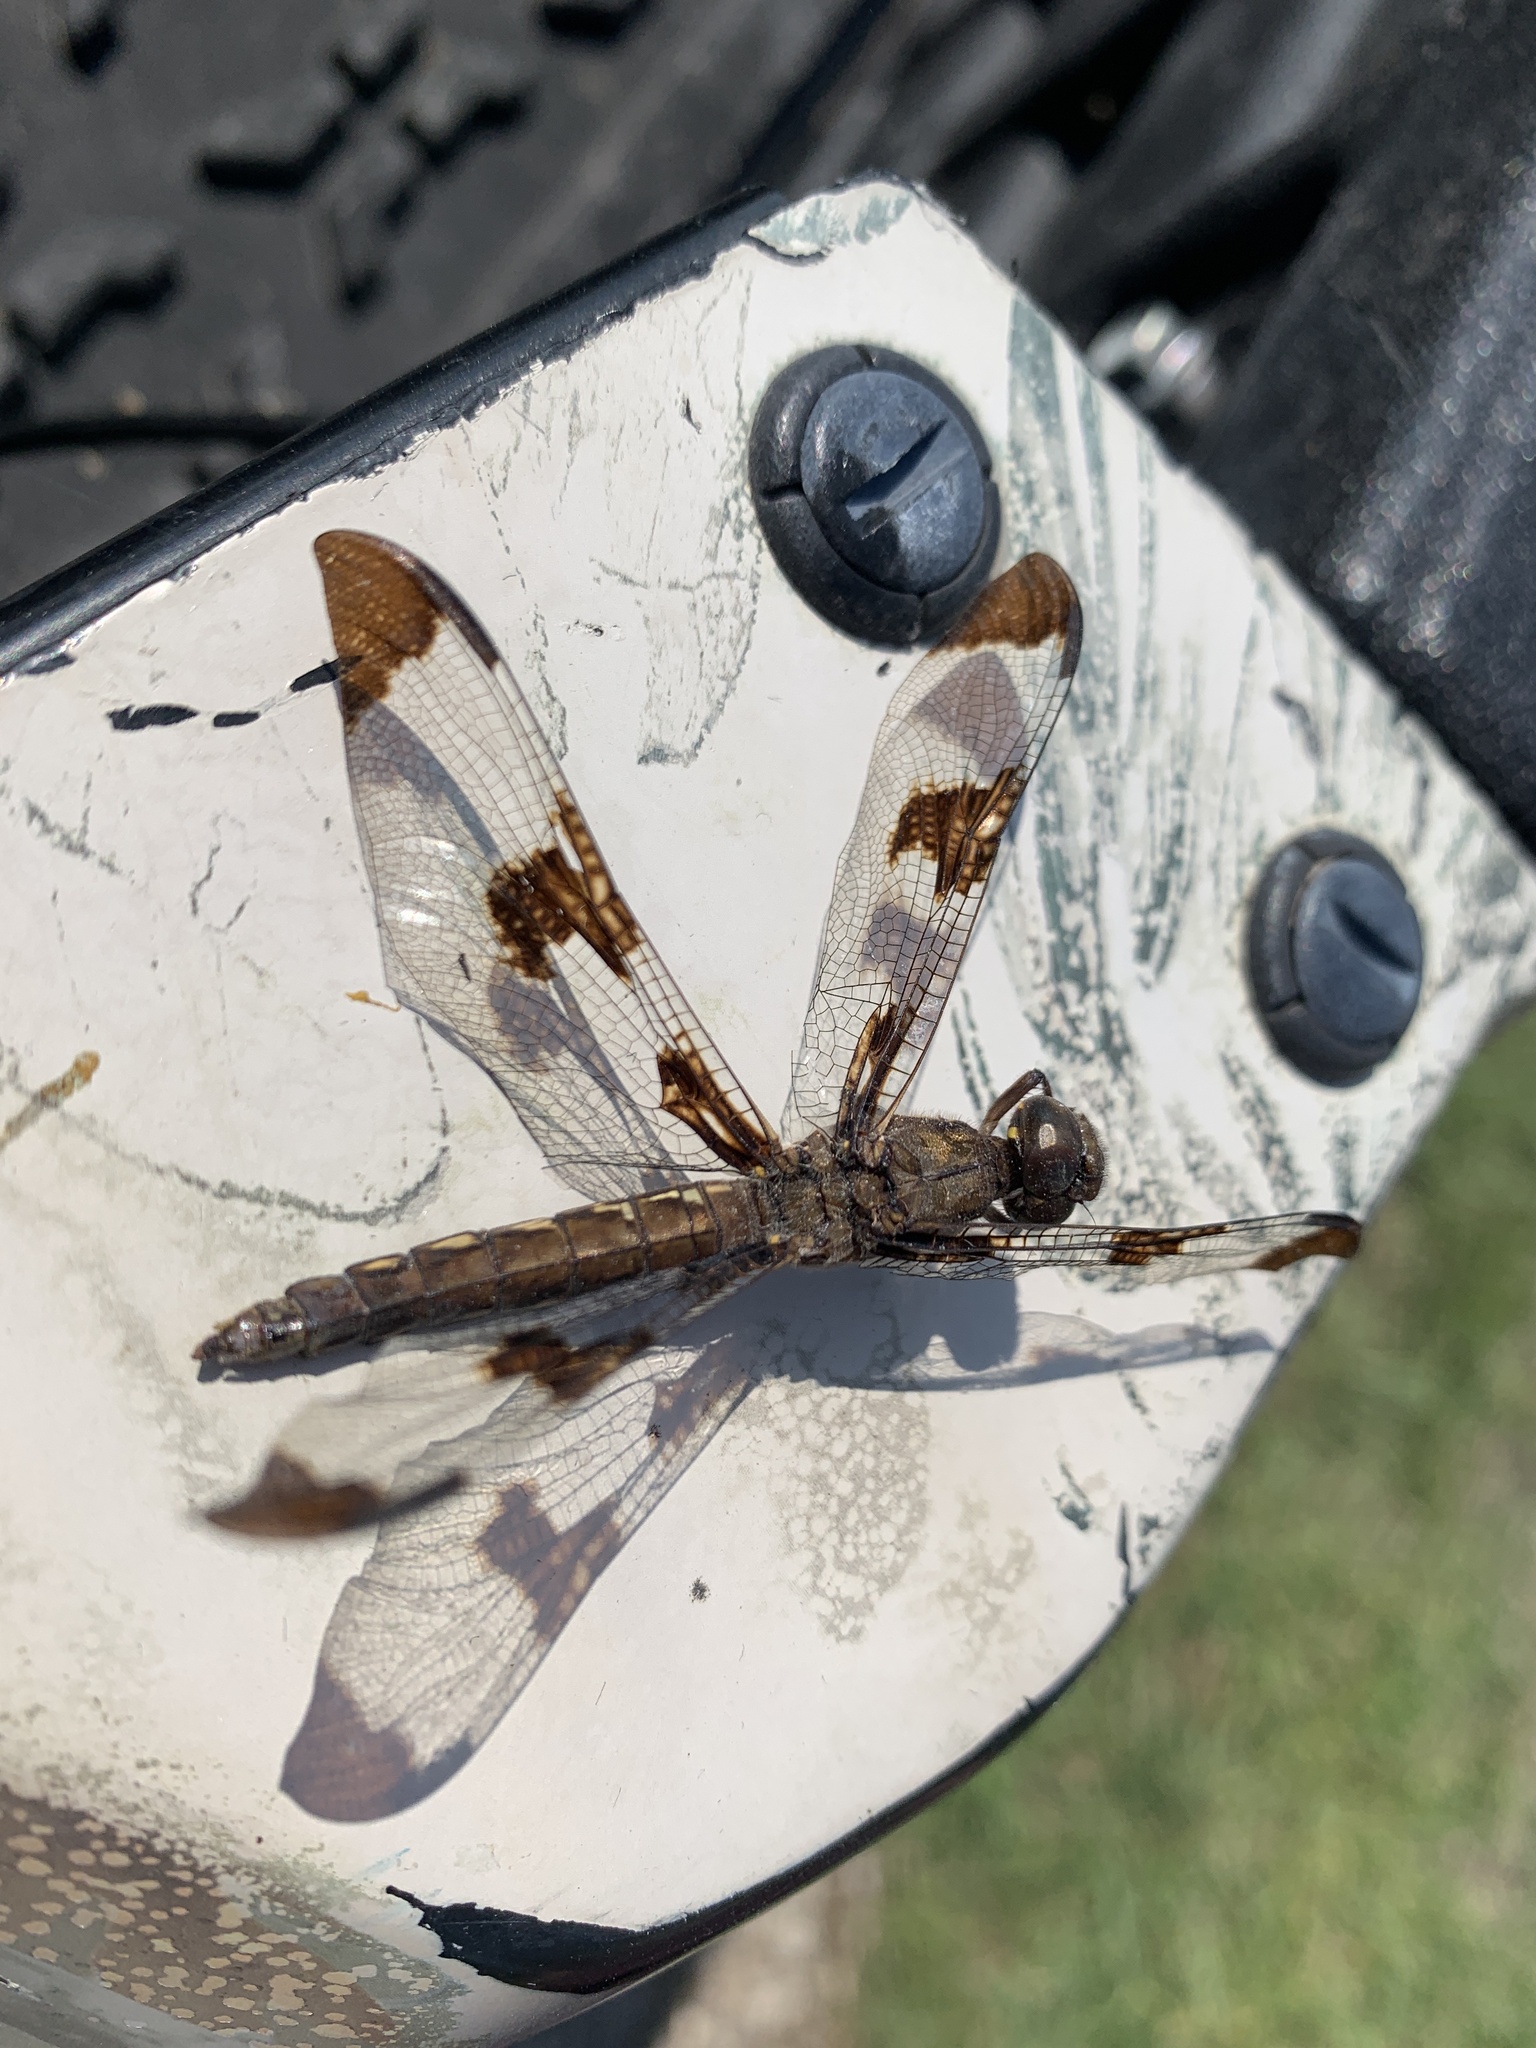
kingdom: Animalia
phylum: Arthropoda
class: Insecta
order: Odonata
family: Libellulidae
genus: Plathemis
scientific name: Plathemis lydia
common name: Common whitetail
